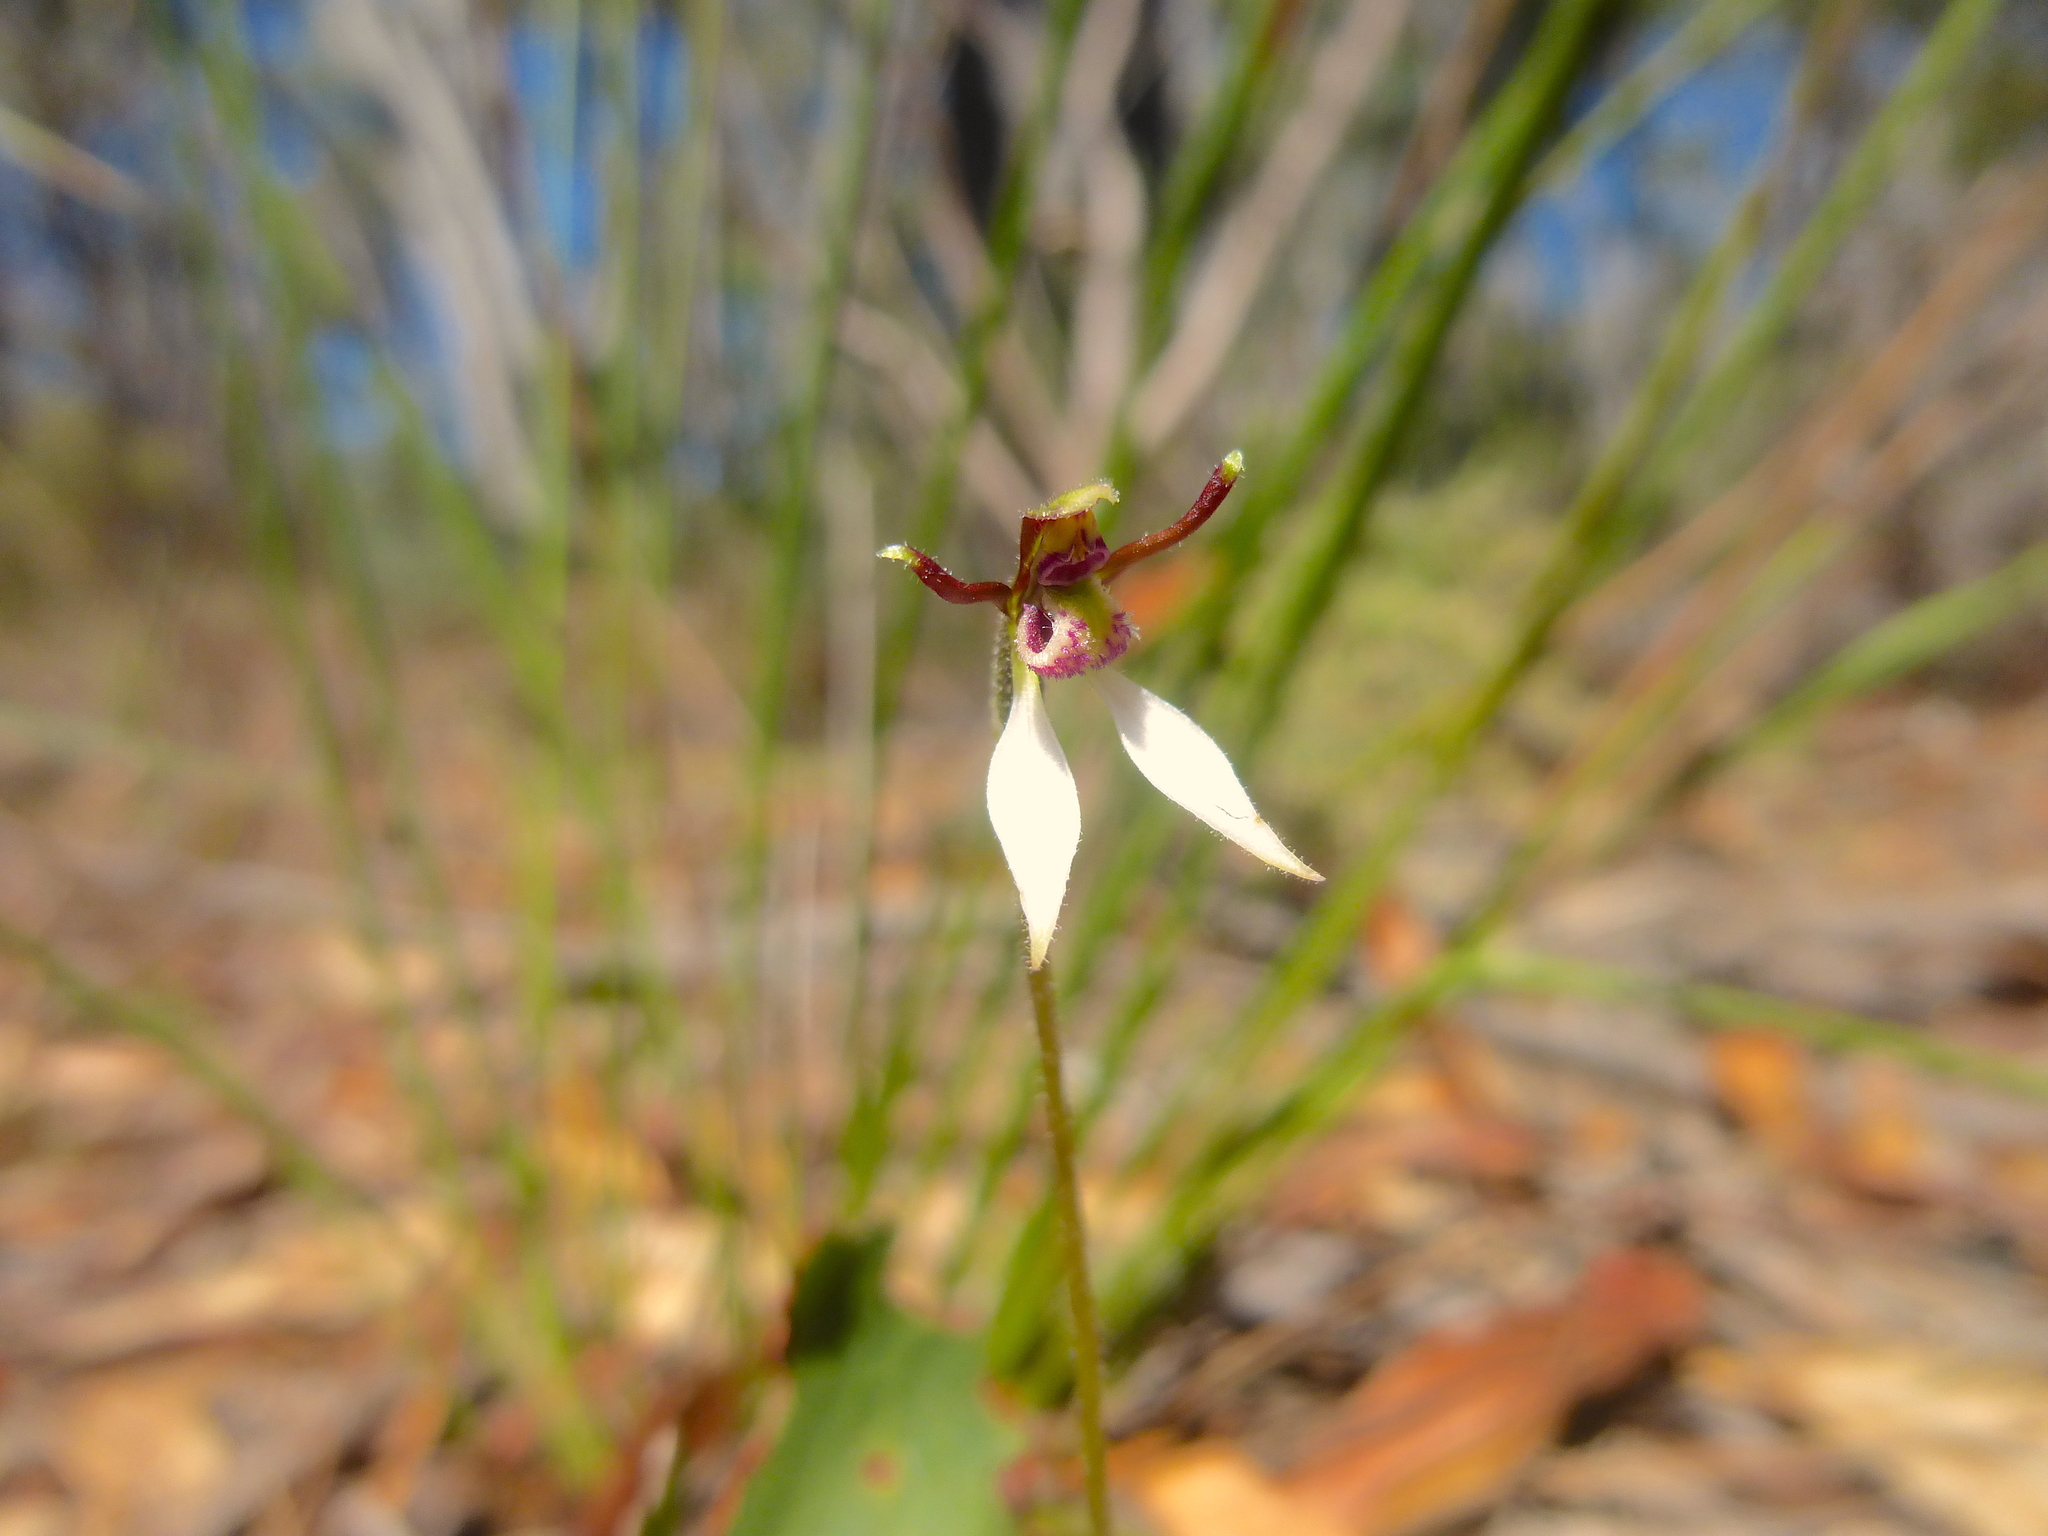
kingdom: Plantae
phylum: Tracheophyta
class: Liliopsida
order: Asparagales
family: Orchidaceae
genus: Eriochilus
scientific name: Eriochilus collinus
